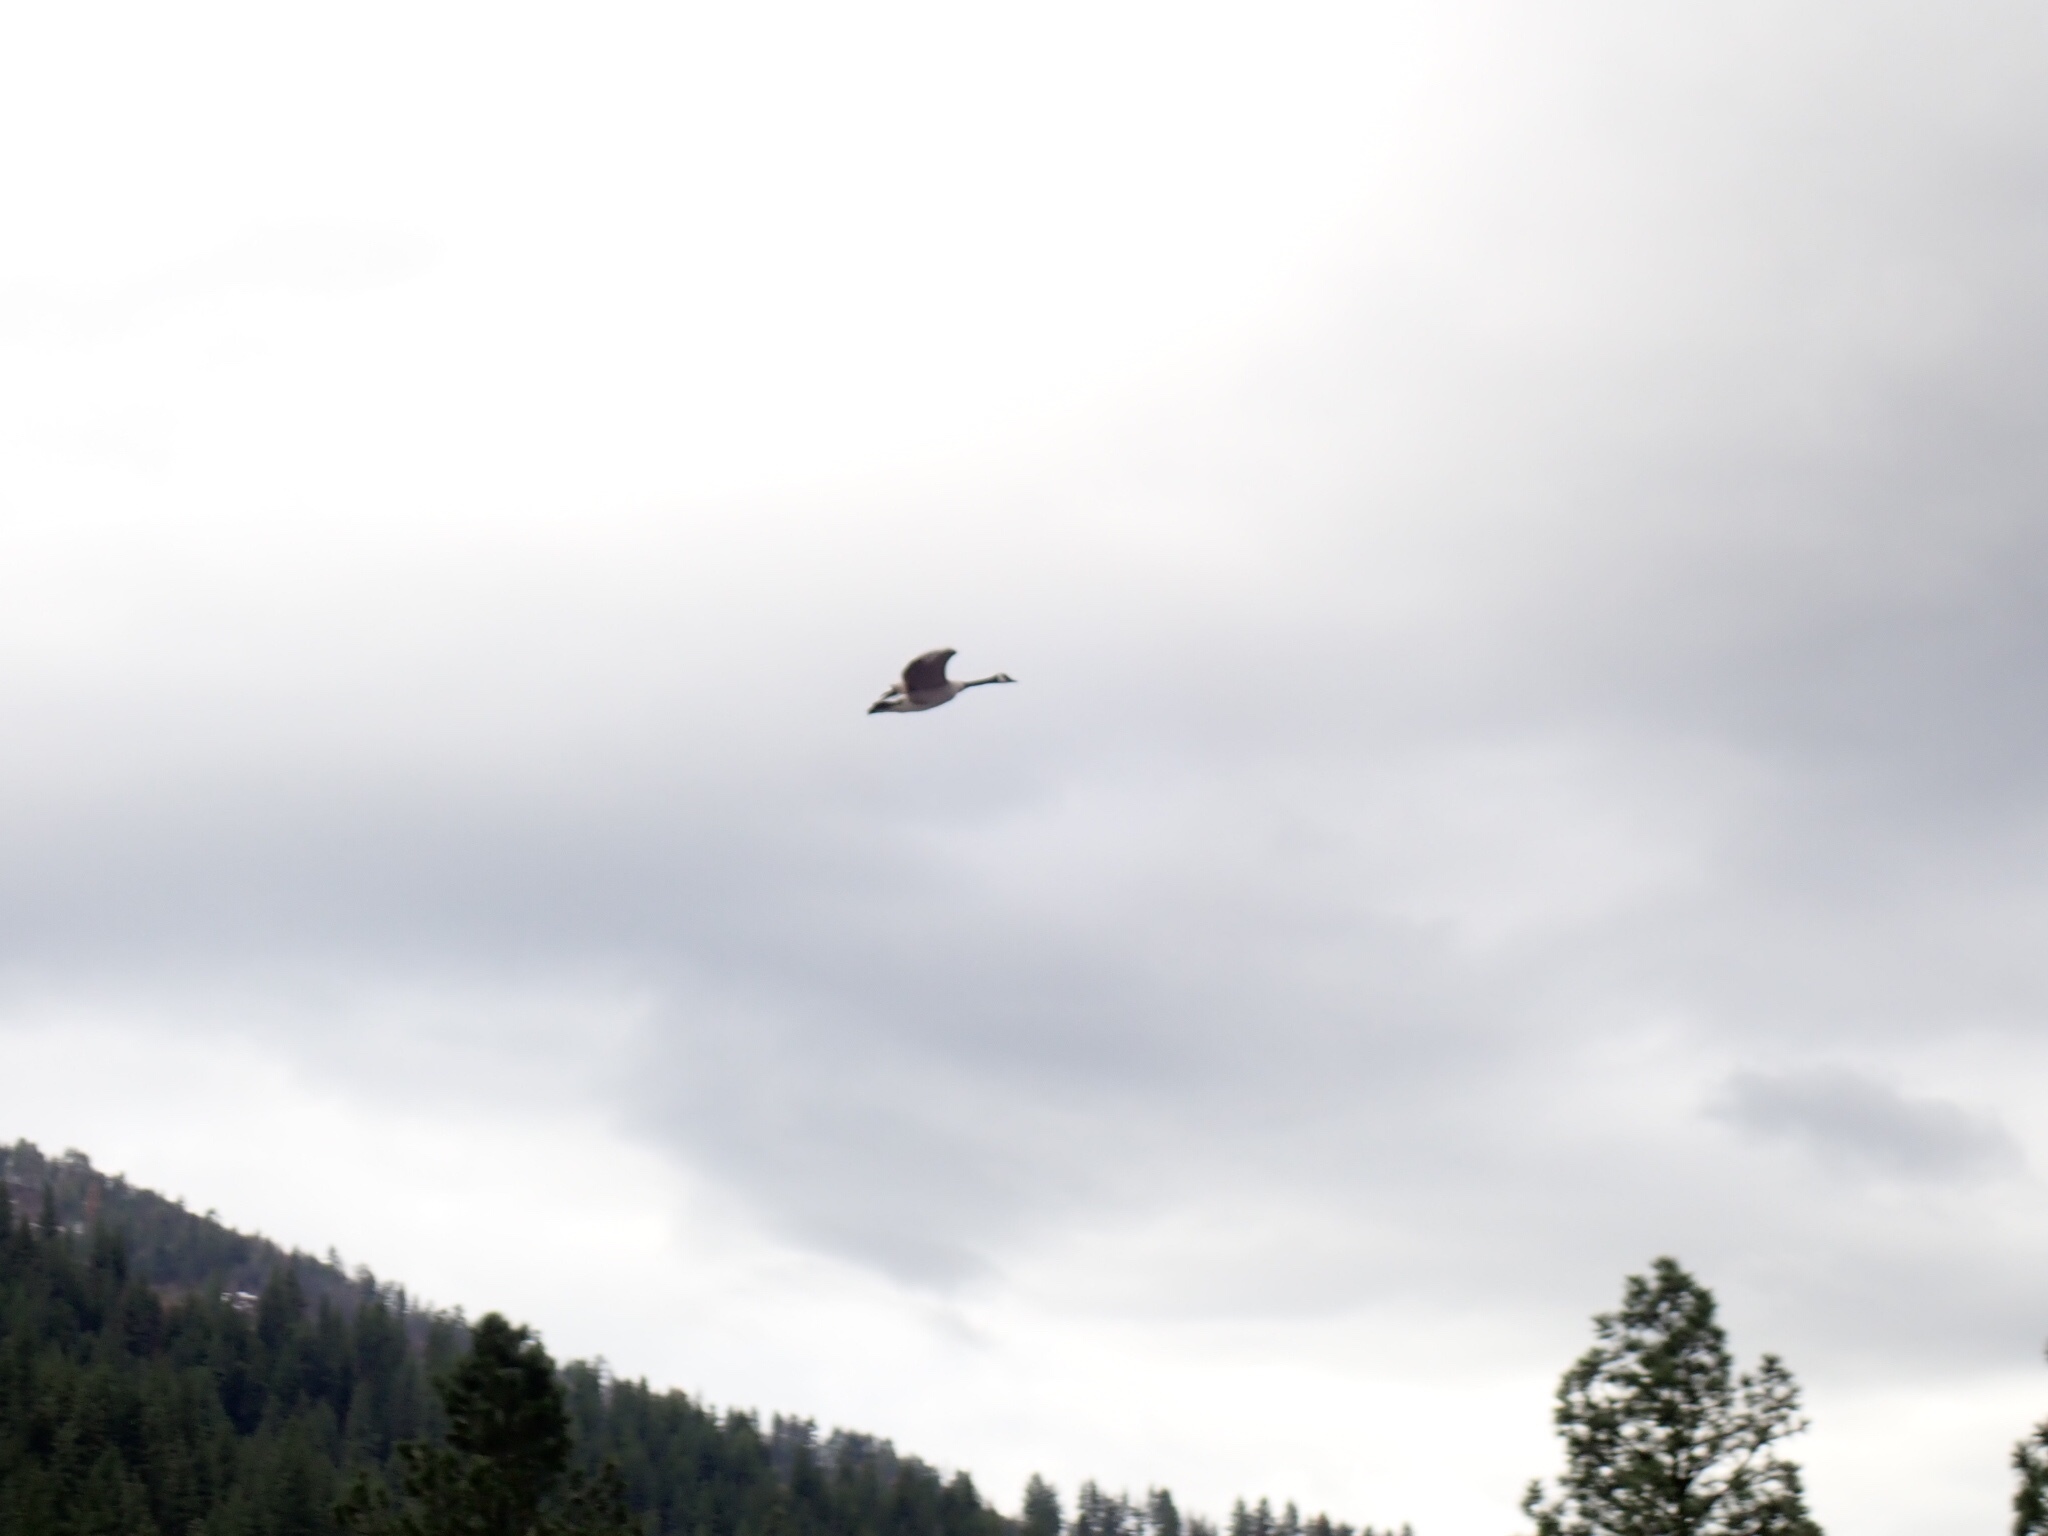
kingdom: Animalia
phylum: Chordata
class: Aves
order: Anseriformes
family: Anatidae
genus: Branta
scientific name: Branta canadensis
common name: Canada goose
